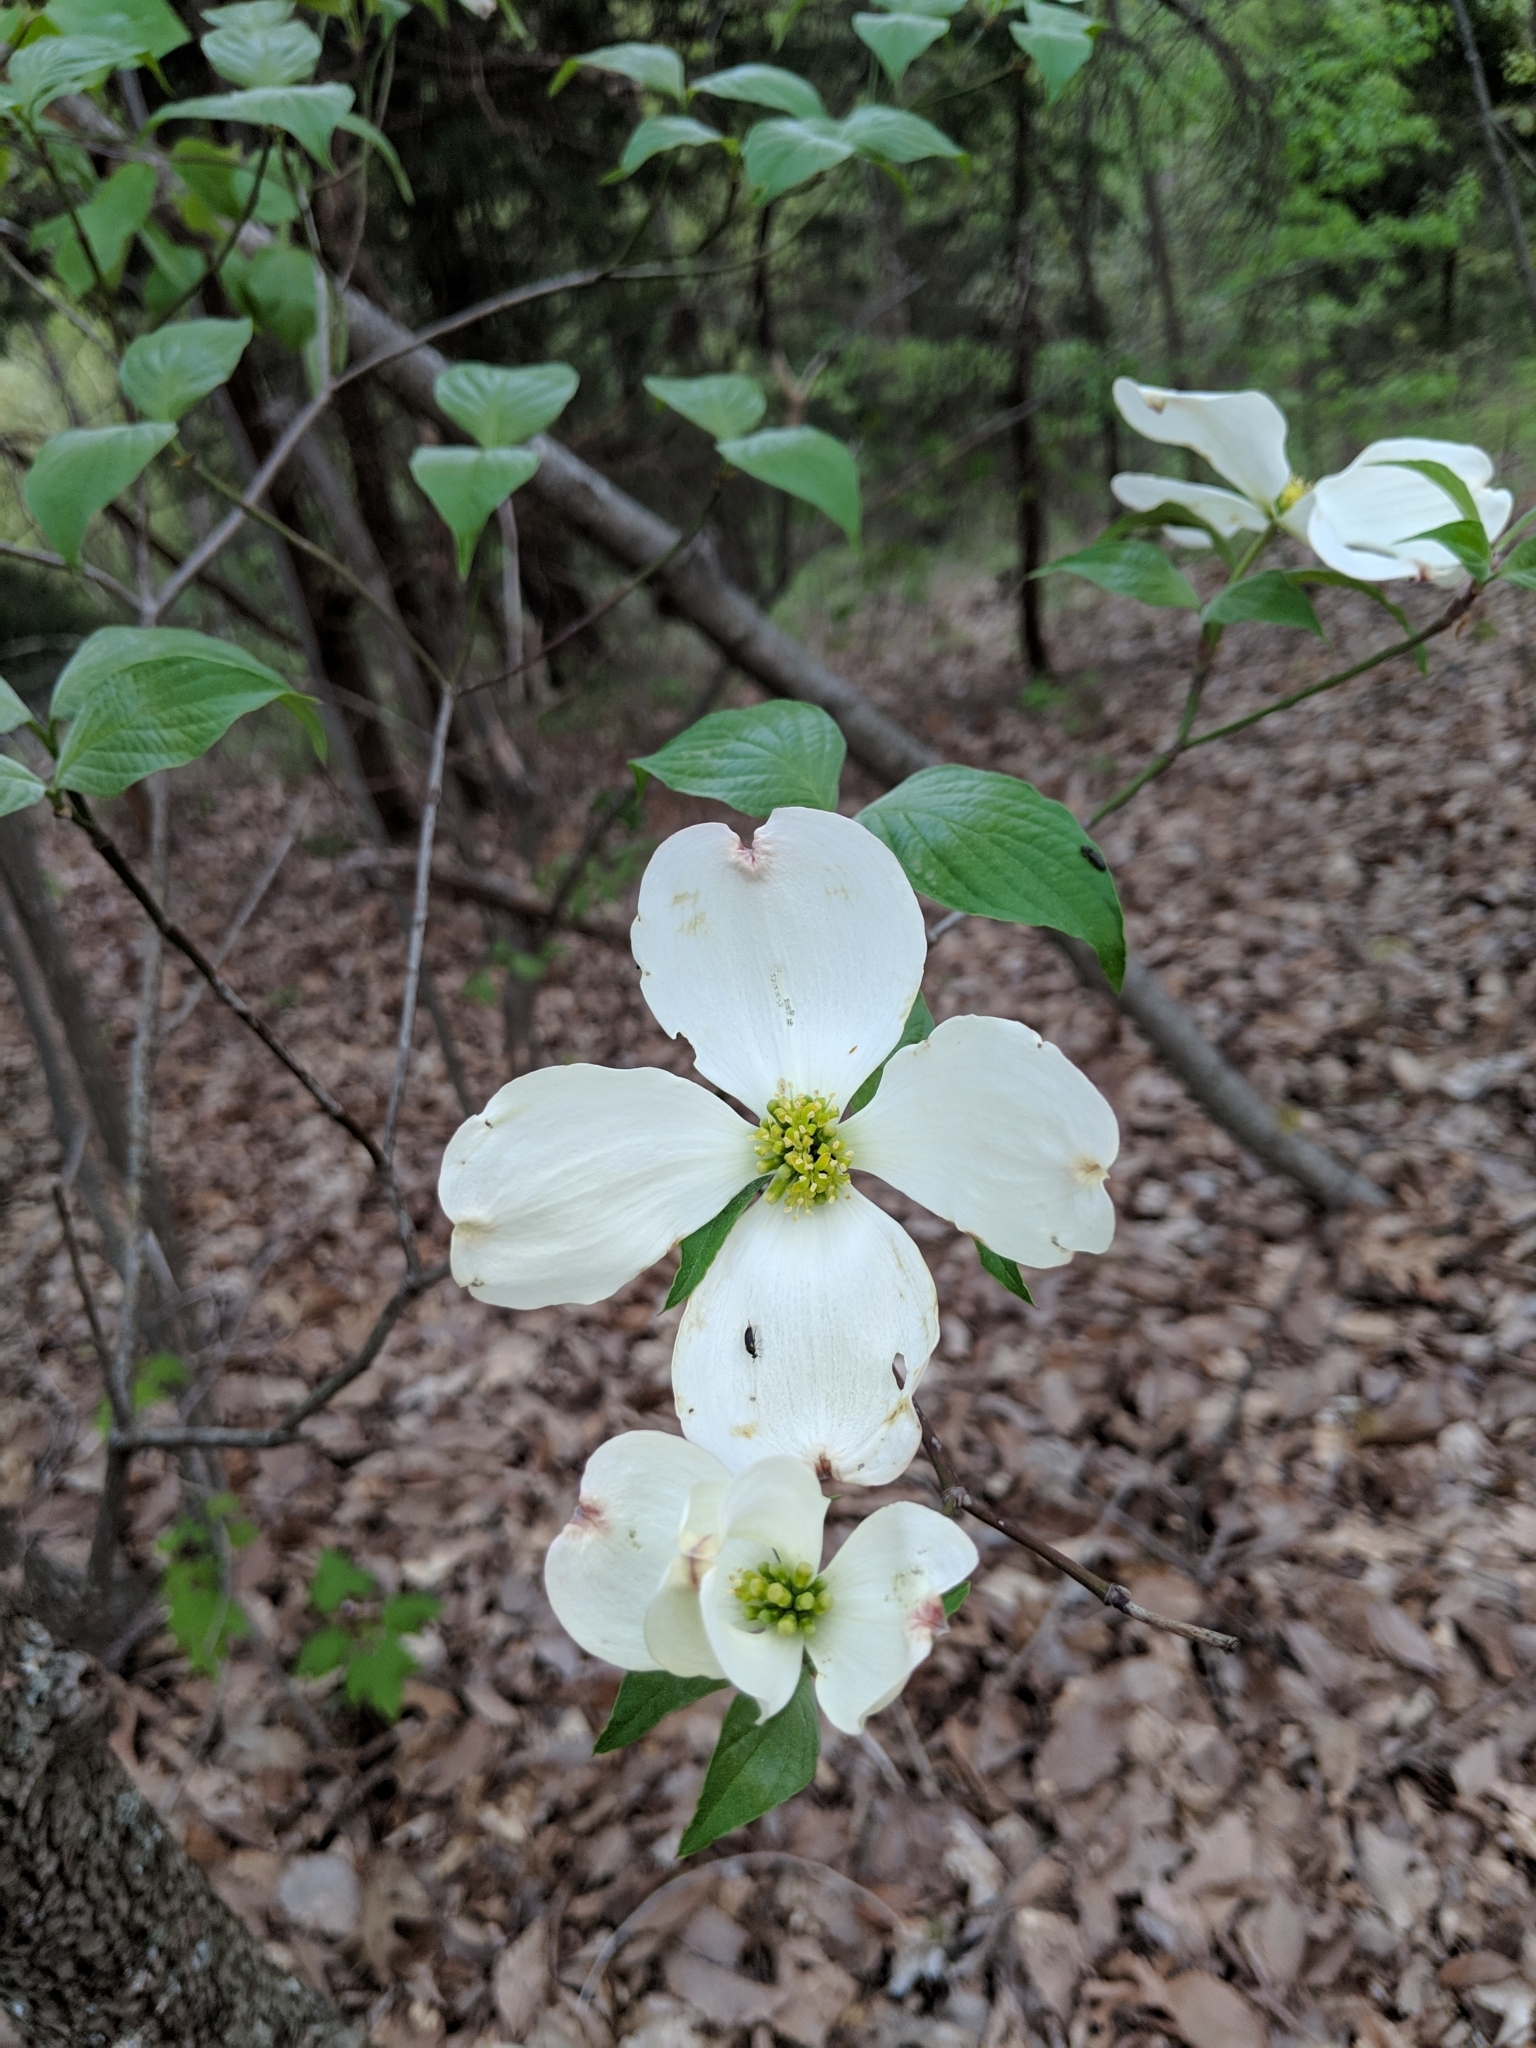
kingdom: Plantae
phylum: Tracheophyta
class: Magnoliopsida
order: Cornales
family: Cornaceae
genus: Cornus
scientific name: Cornus florida
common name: Flowering dogwood
